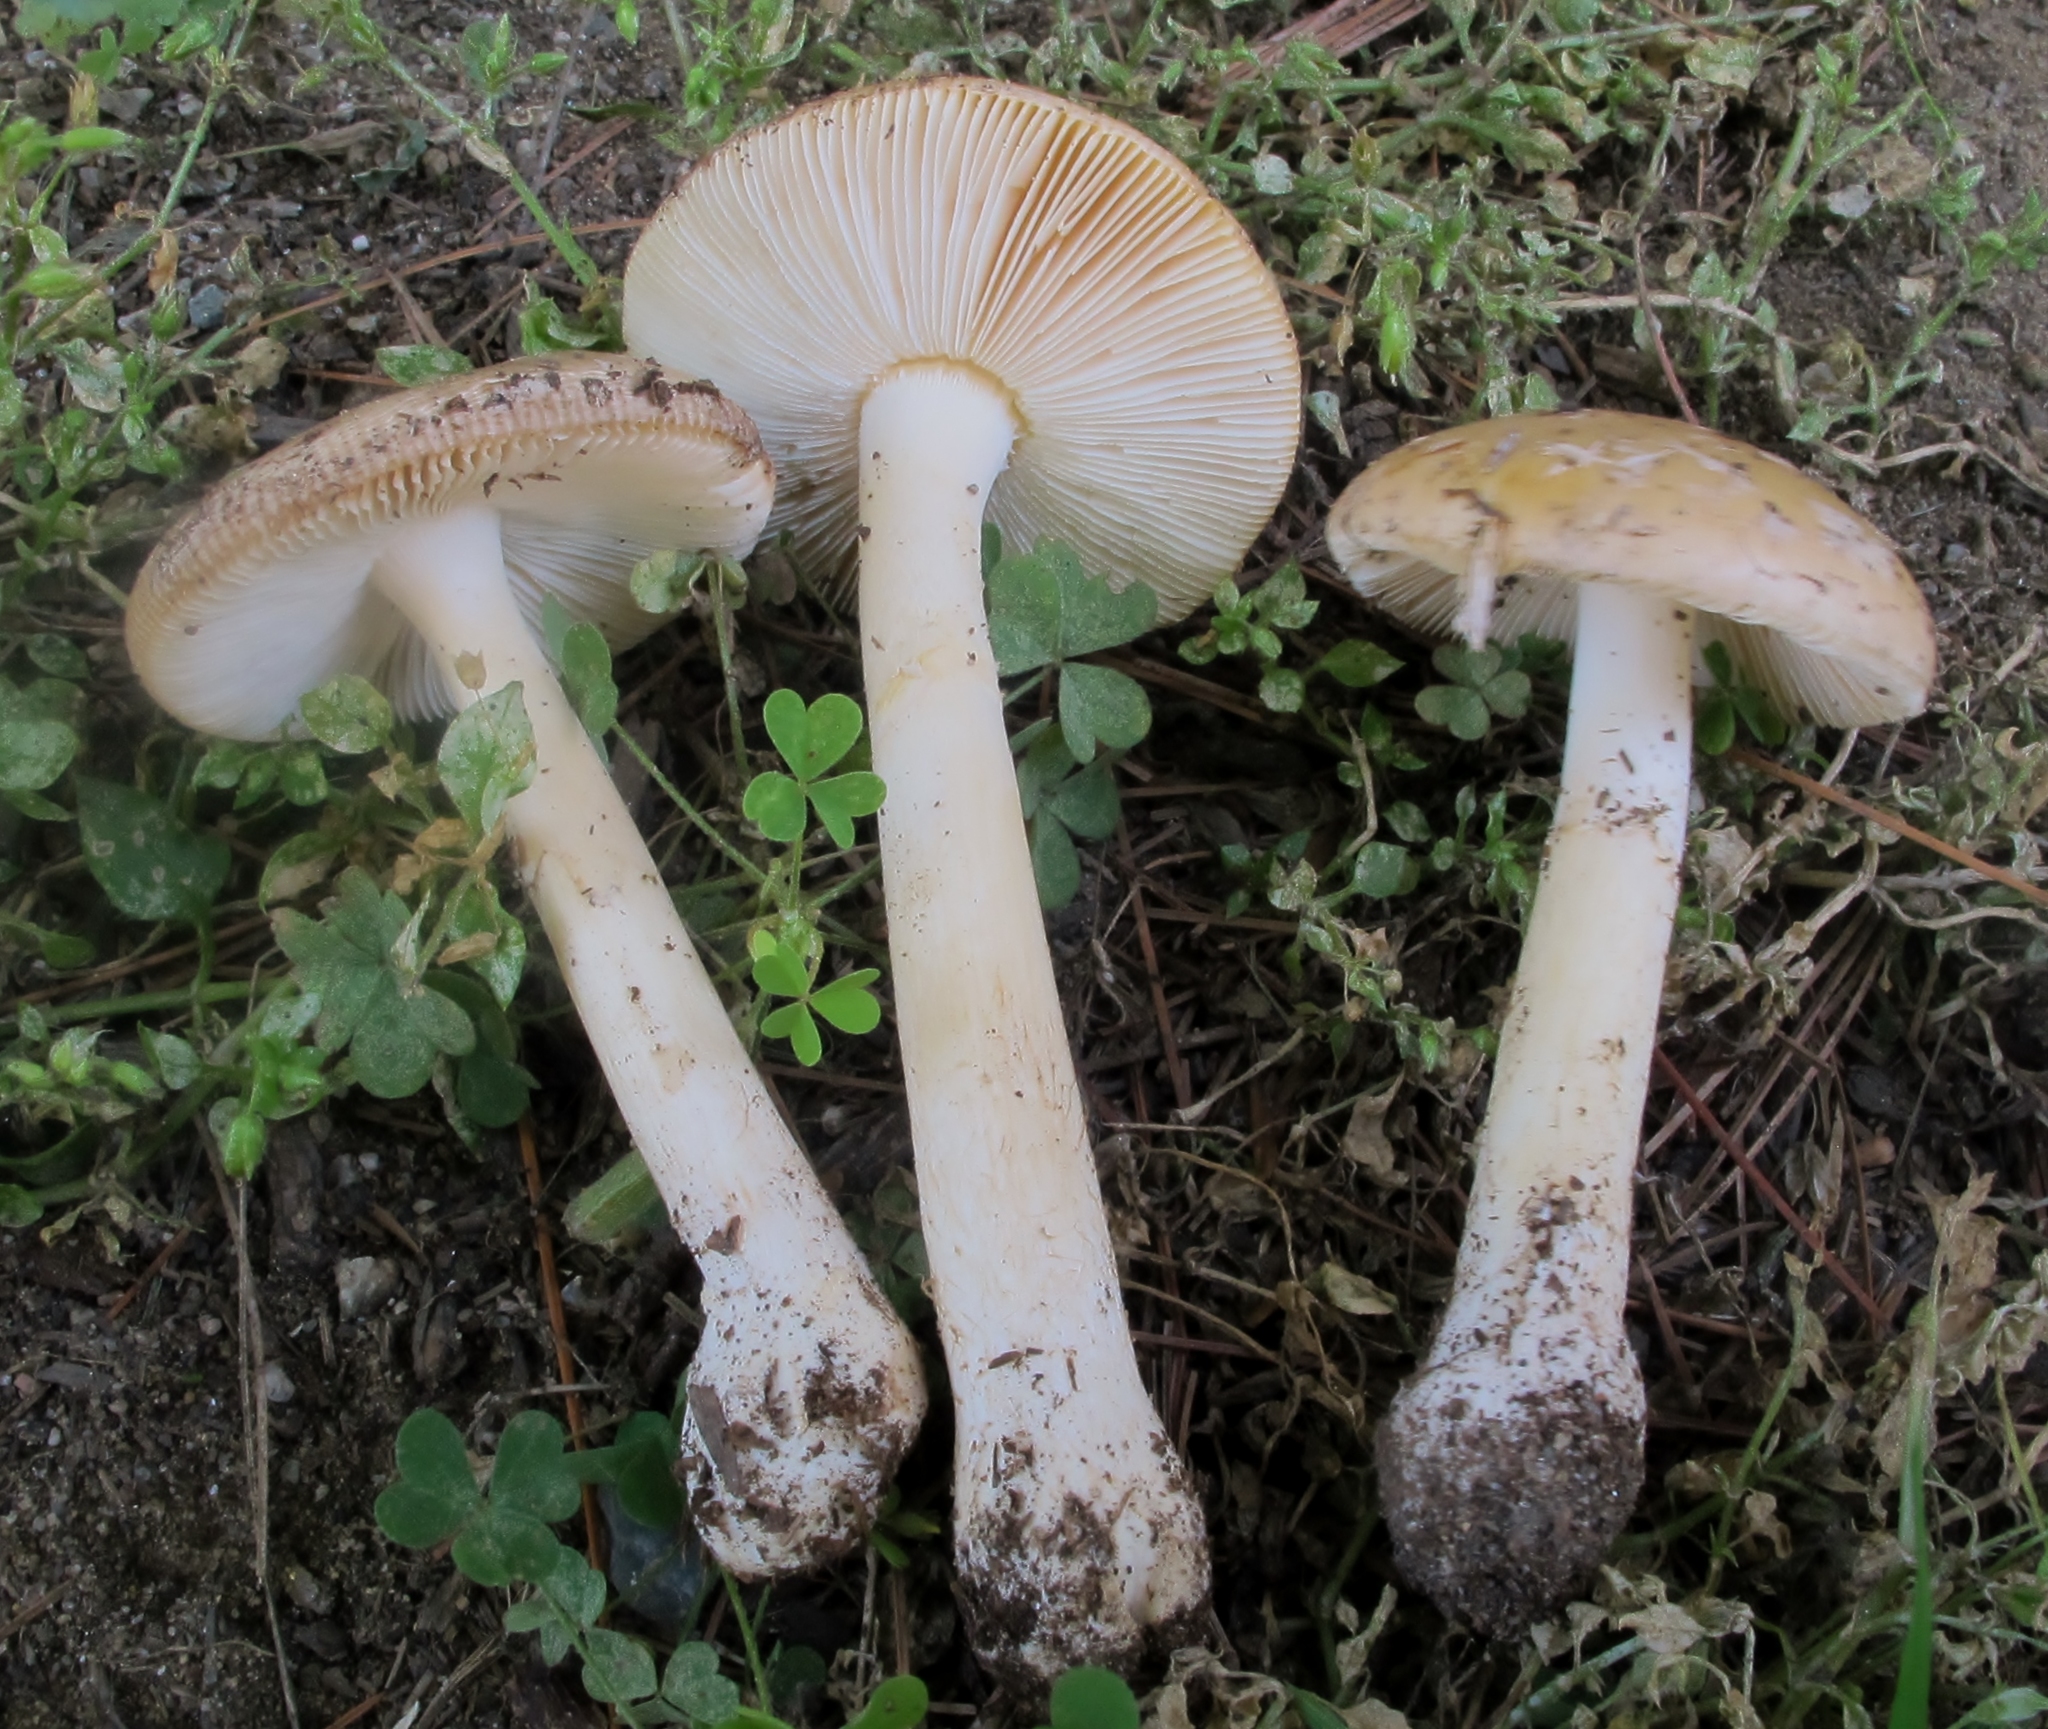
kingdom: Fungi
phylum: Basidiomycota
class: Agaricomycetes
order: Agaricales
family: Amanitaceae
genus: Amanita
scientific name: Amanita crenulata
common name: Poison champagne amanita
